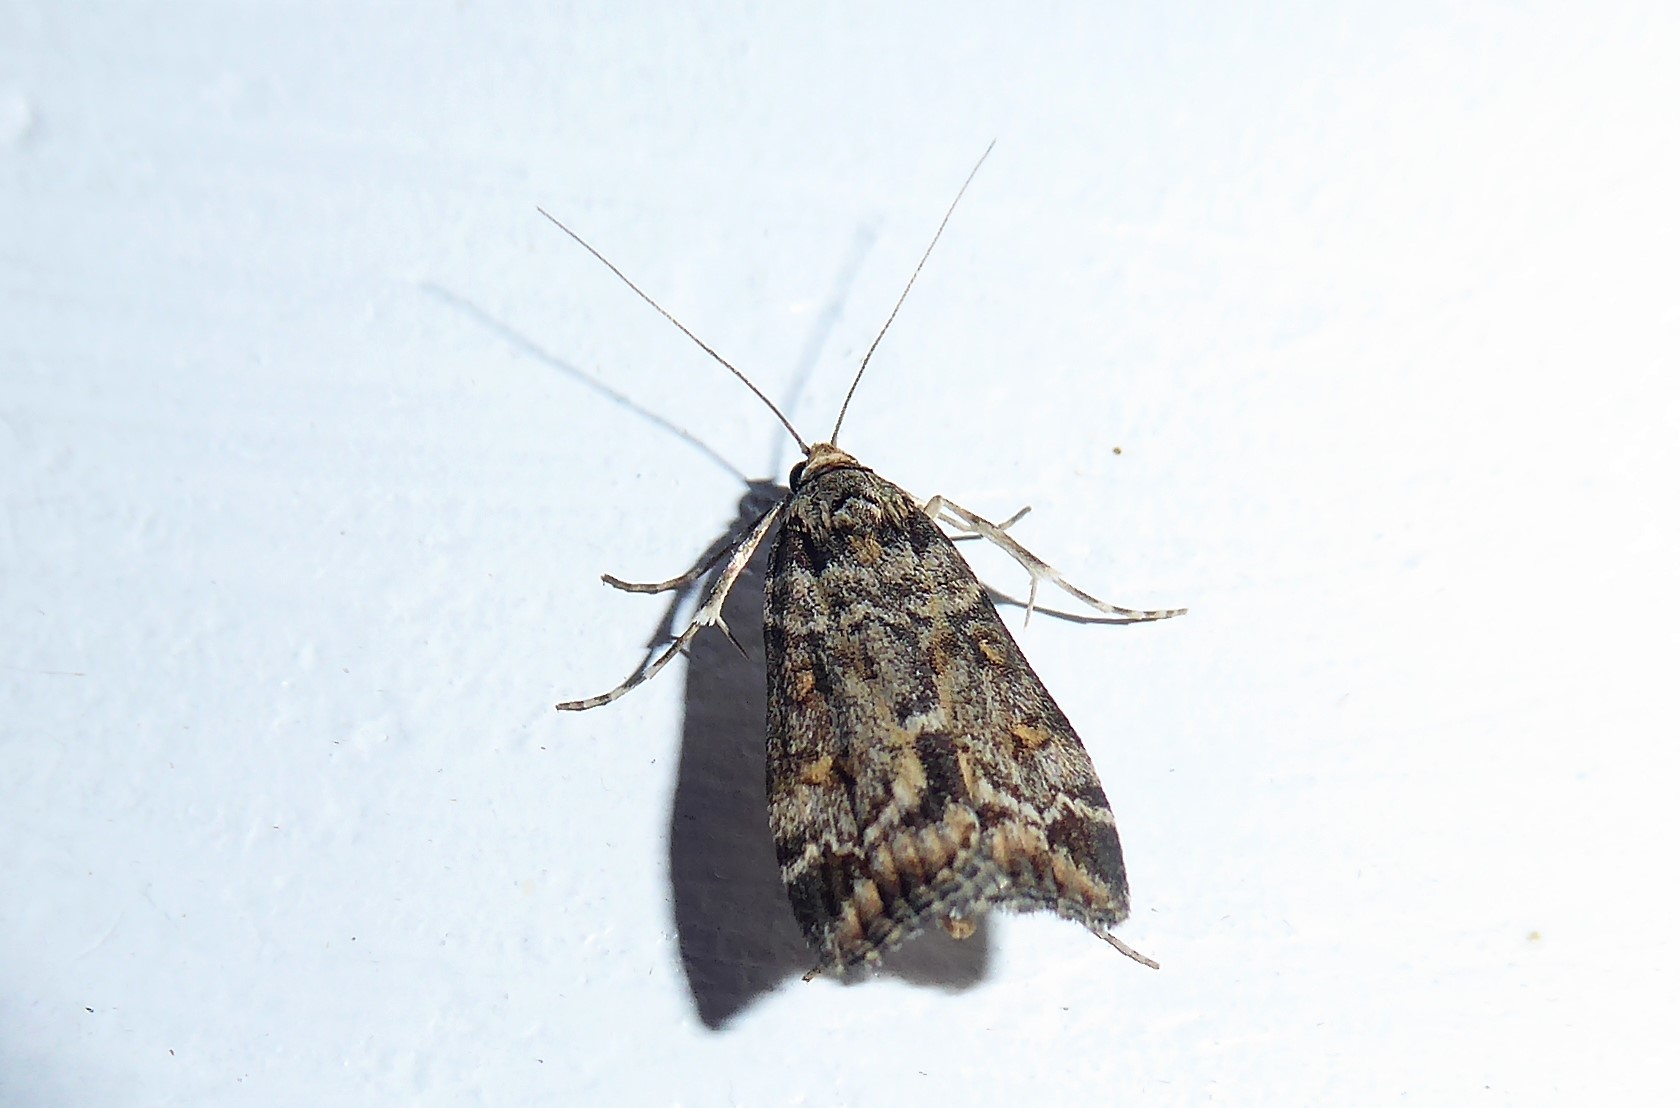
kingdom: Animalia
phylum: Arthropoda
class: Insecta
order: Lepidoptera
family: Crambidae
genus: Eudonia
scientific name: Eudonia diphtheralis
